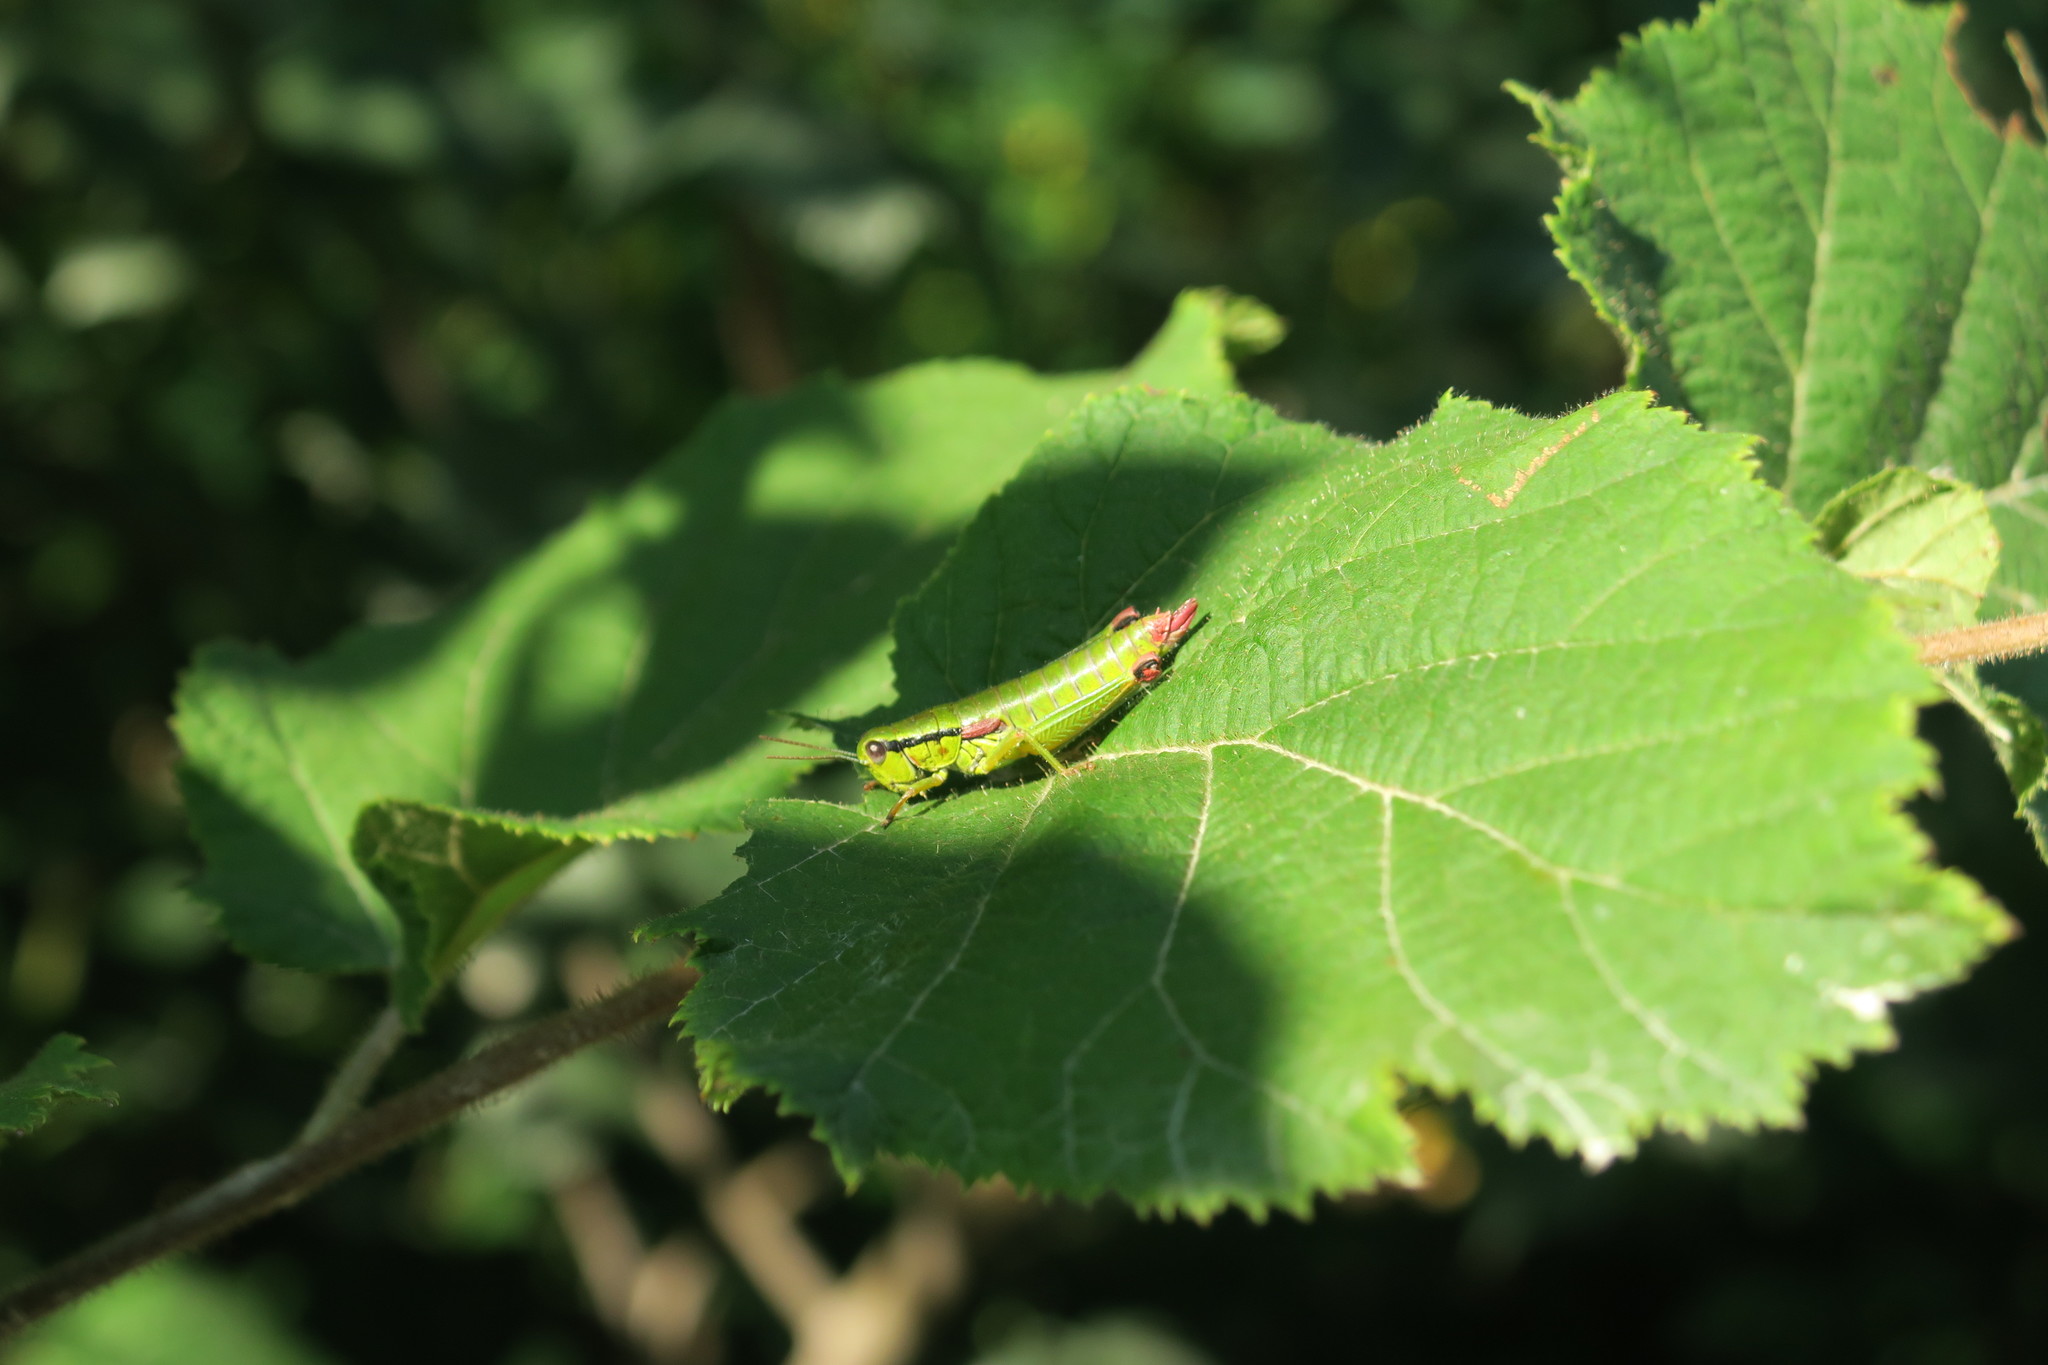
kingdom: Animalia
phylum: Arthropoda
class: Insecta
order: Orthoptera
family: Acrididae
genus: Odontopodisma
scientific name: Odontopodisma decipiens
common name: Cheating mountain grasshopper
